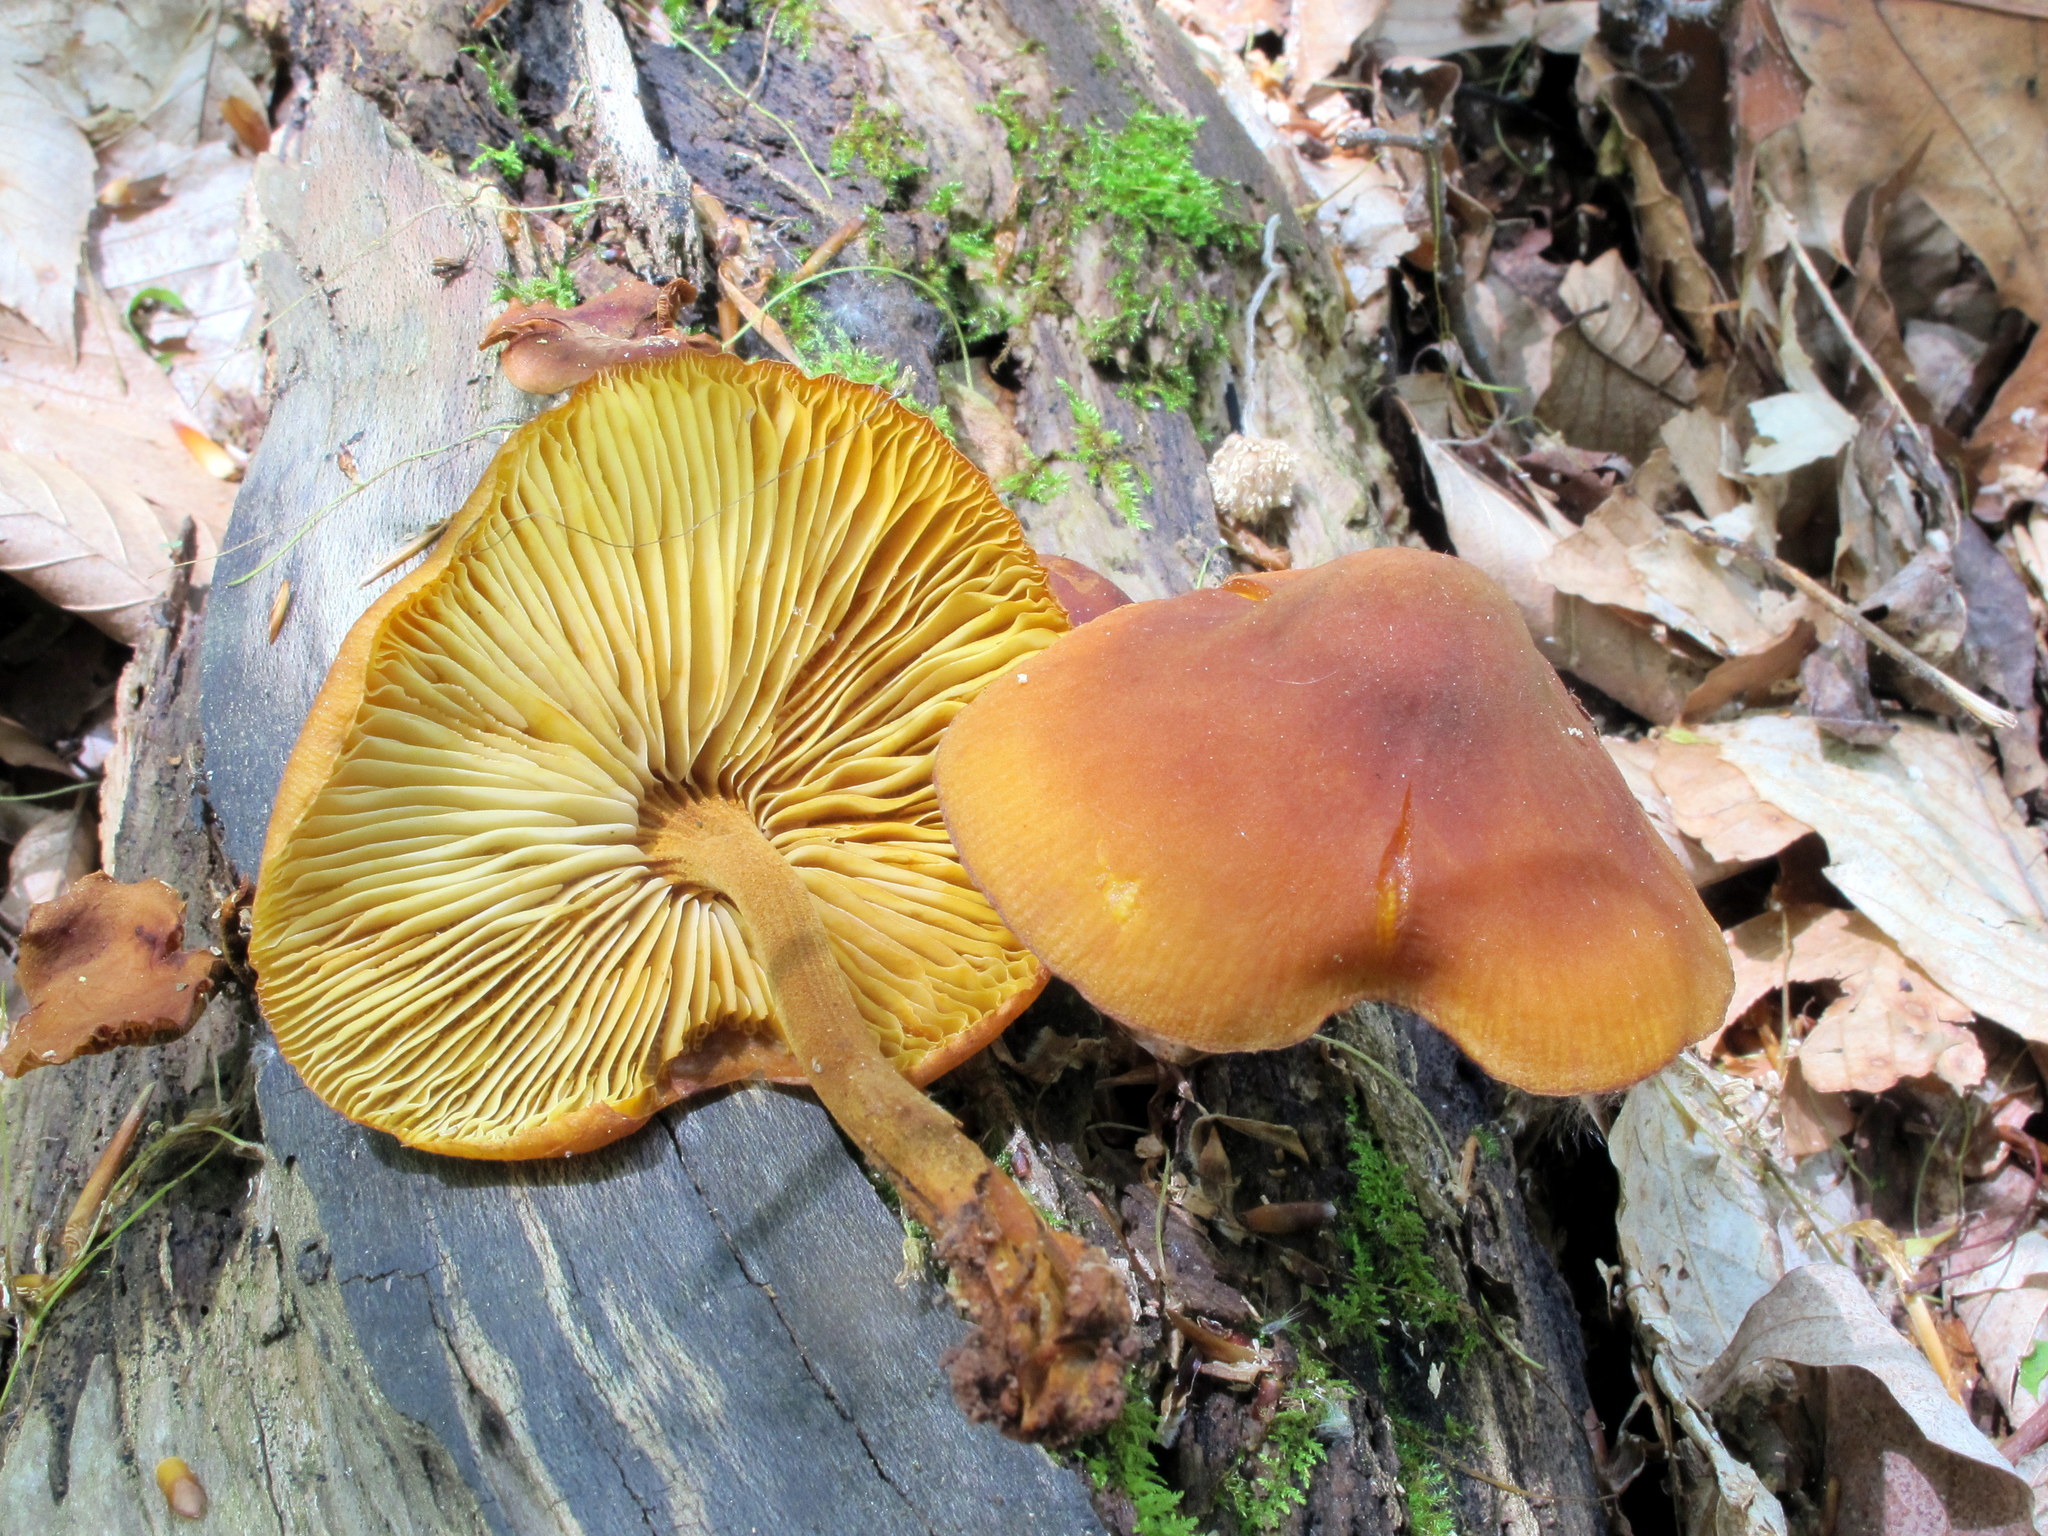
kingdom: Fungi
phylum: Basidiomycota
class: Agaricomycetes
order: Agaricales
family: Mycenaceae
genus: Xeromphalina
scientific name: Xeromphalina tenuipes
